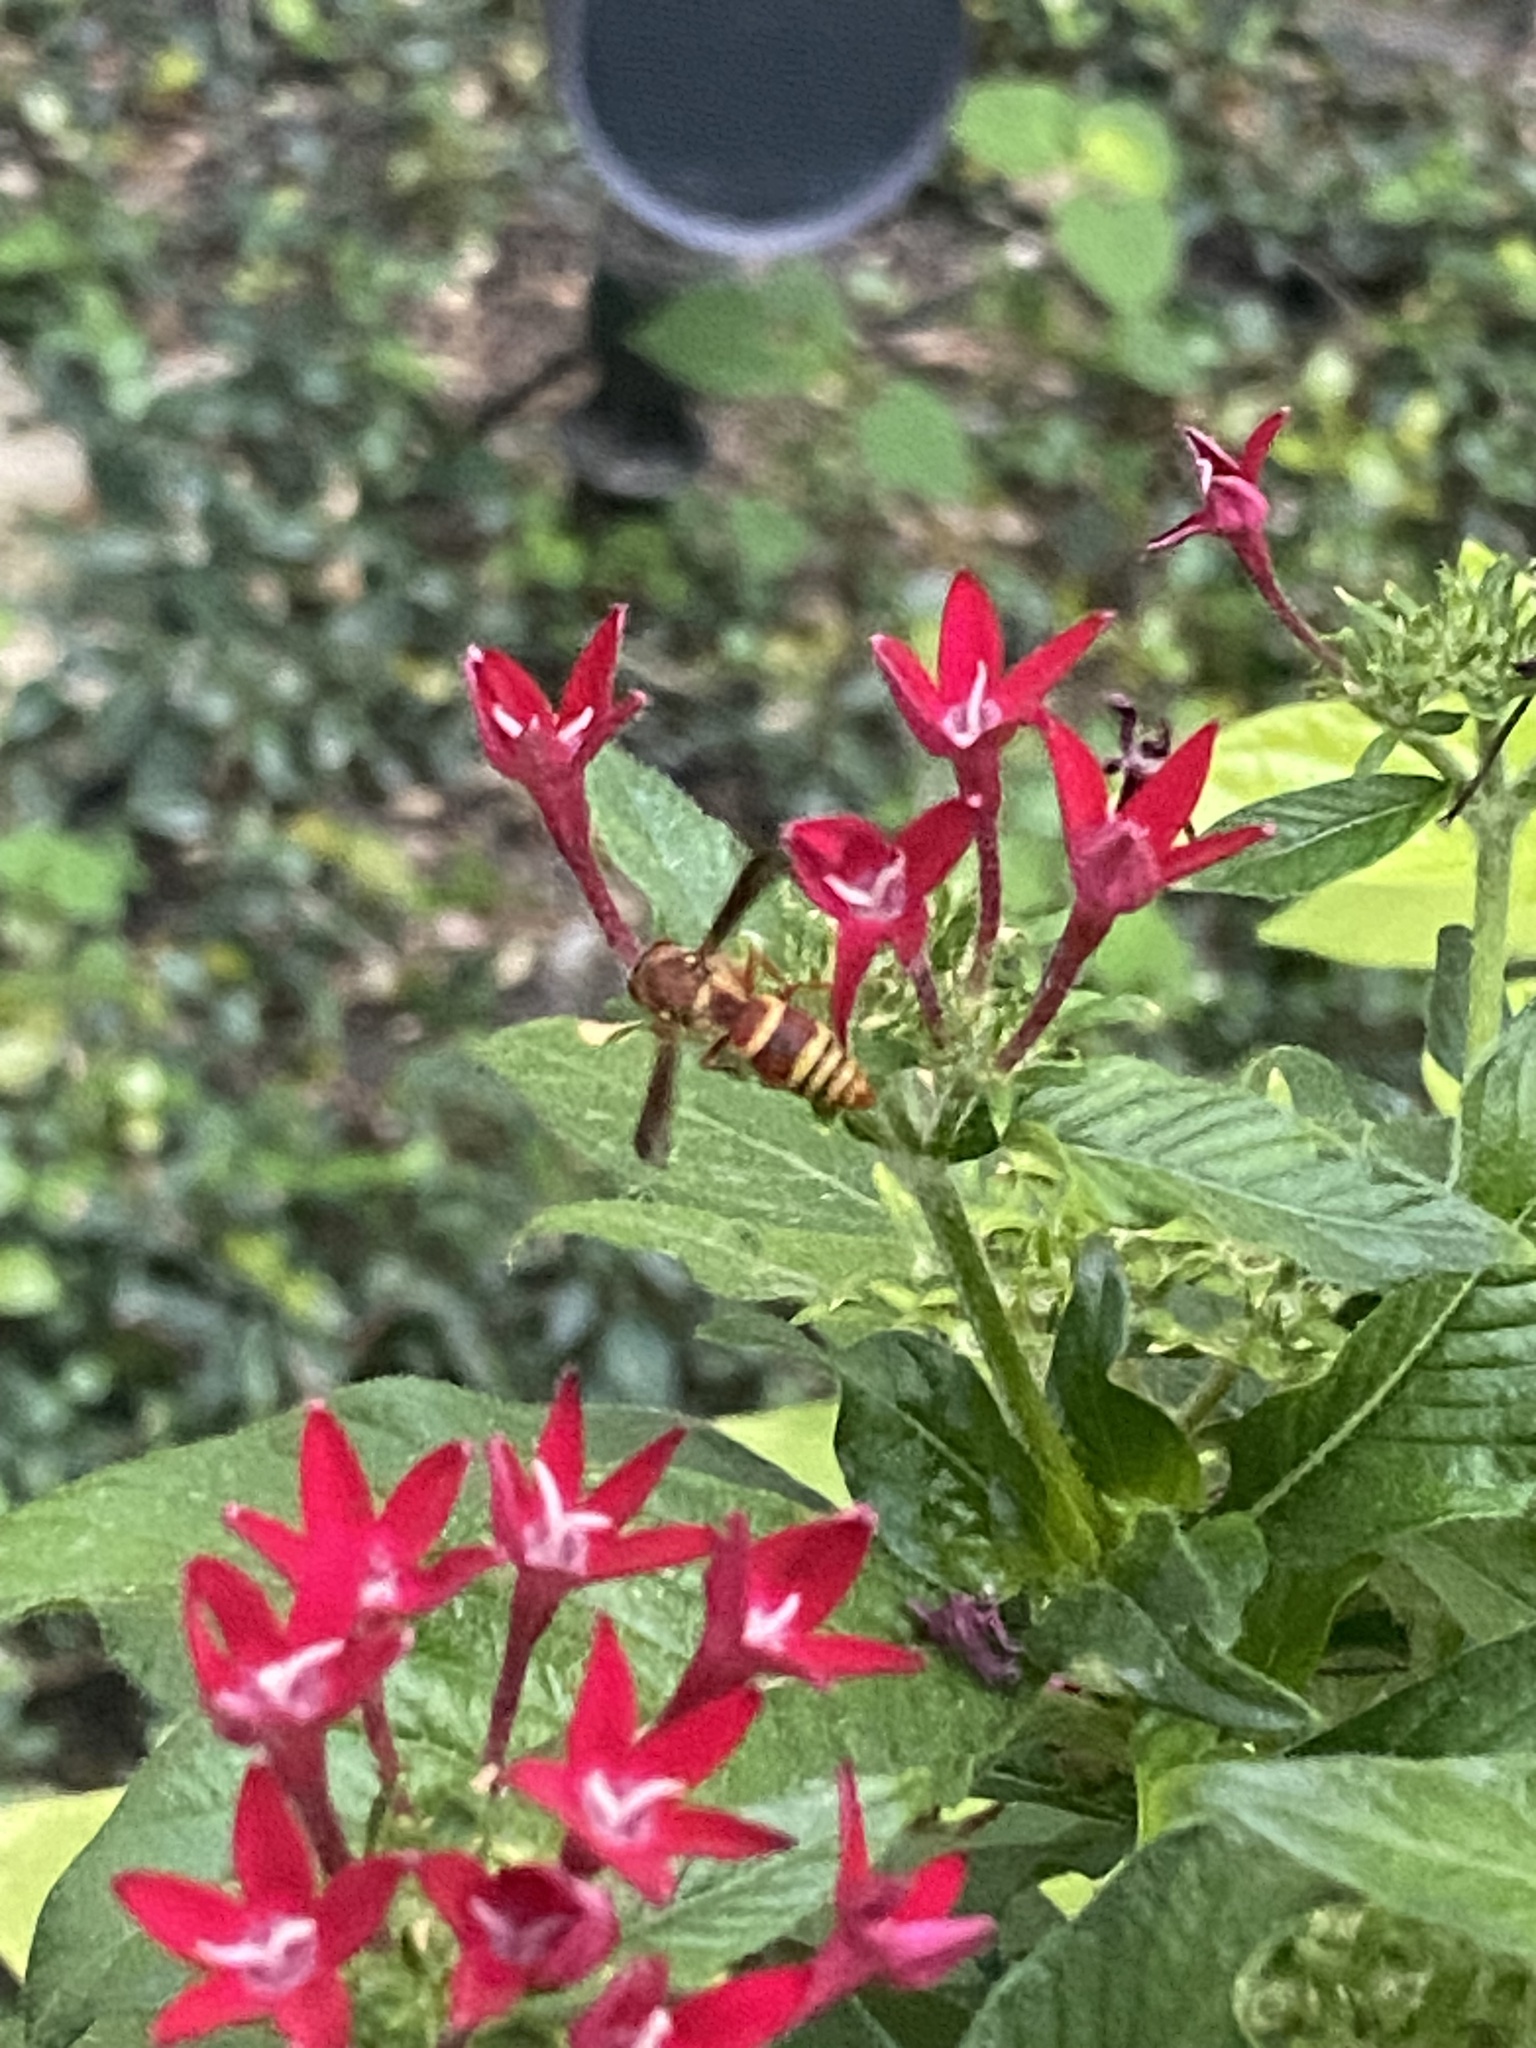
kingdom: Animalia
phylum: Arthropoda
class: Insecta
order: Hymenoptera
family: Eumenidae
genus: Euodynerus
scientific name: Euodynerus pratensis
